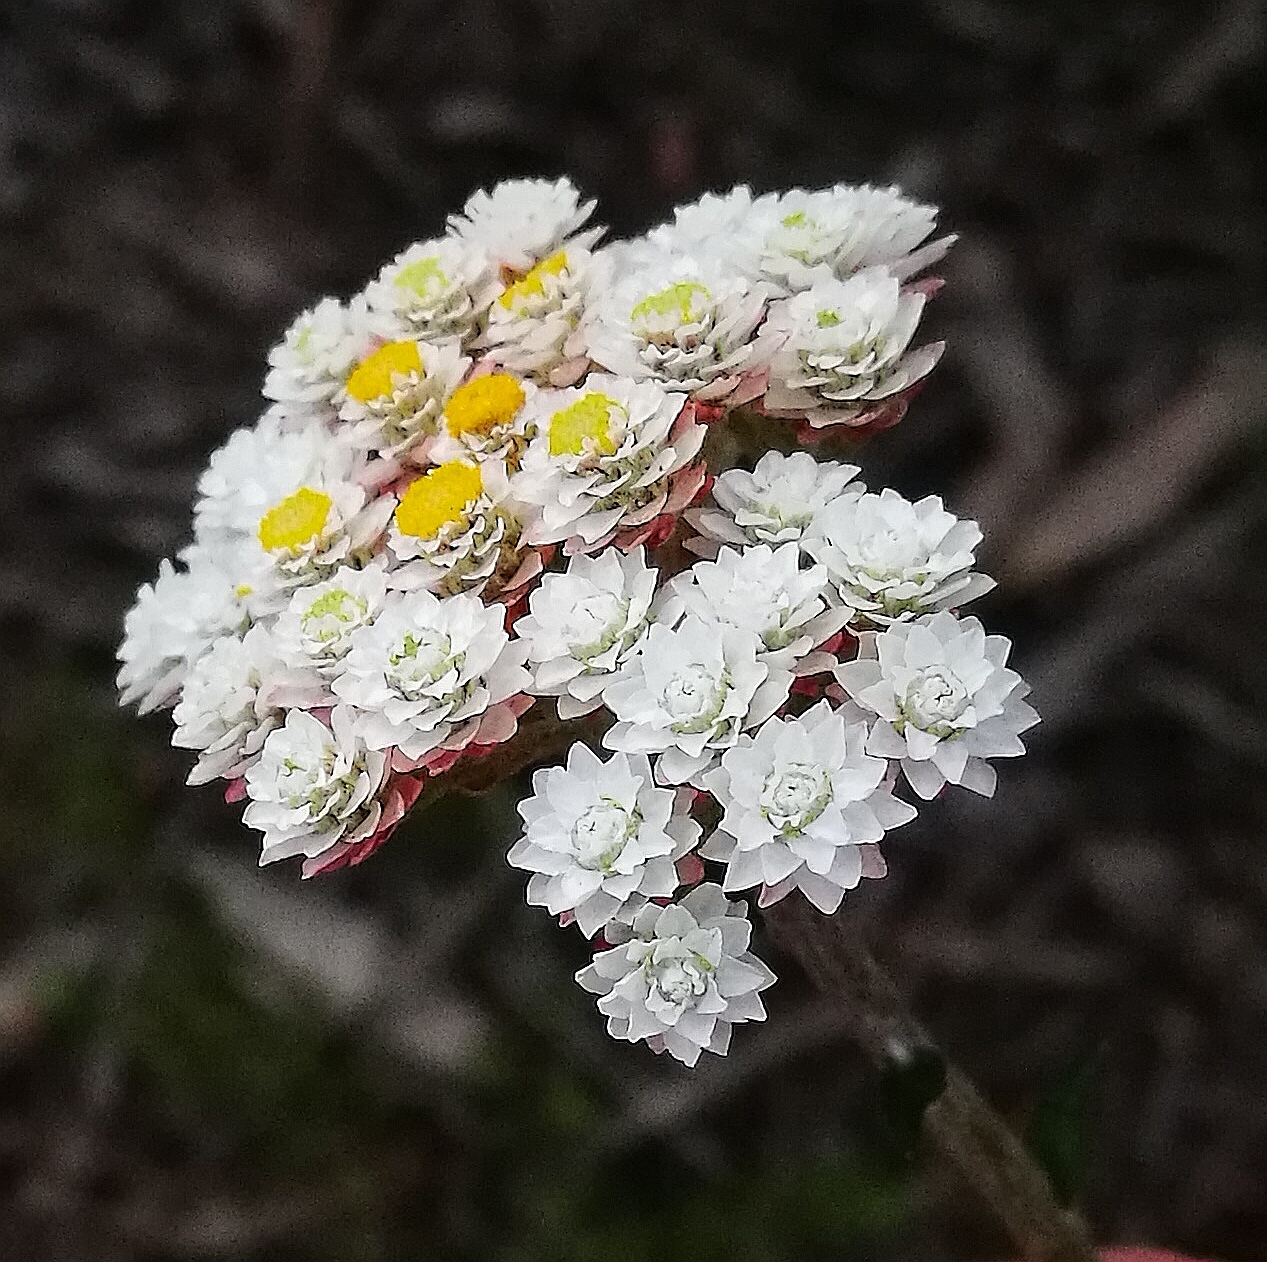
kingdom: Plantae
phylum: Tracheophyta
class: Magnoliopsida
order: Asterales
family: Asteraceae
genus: Helichrysum
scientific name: Helichrysum felinum
